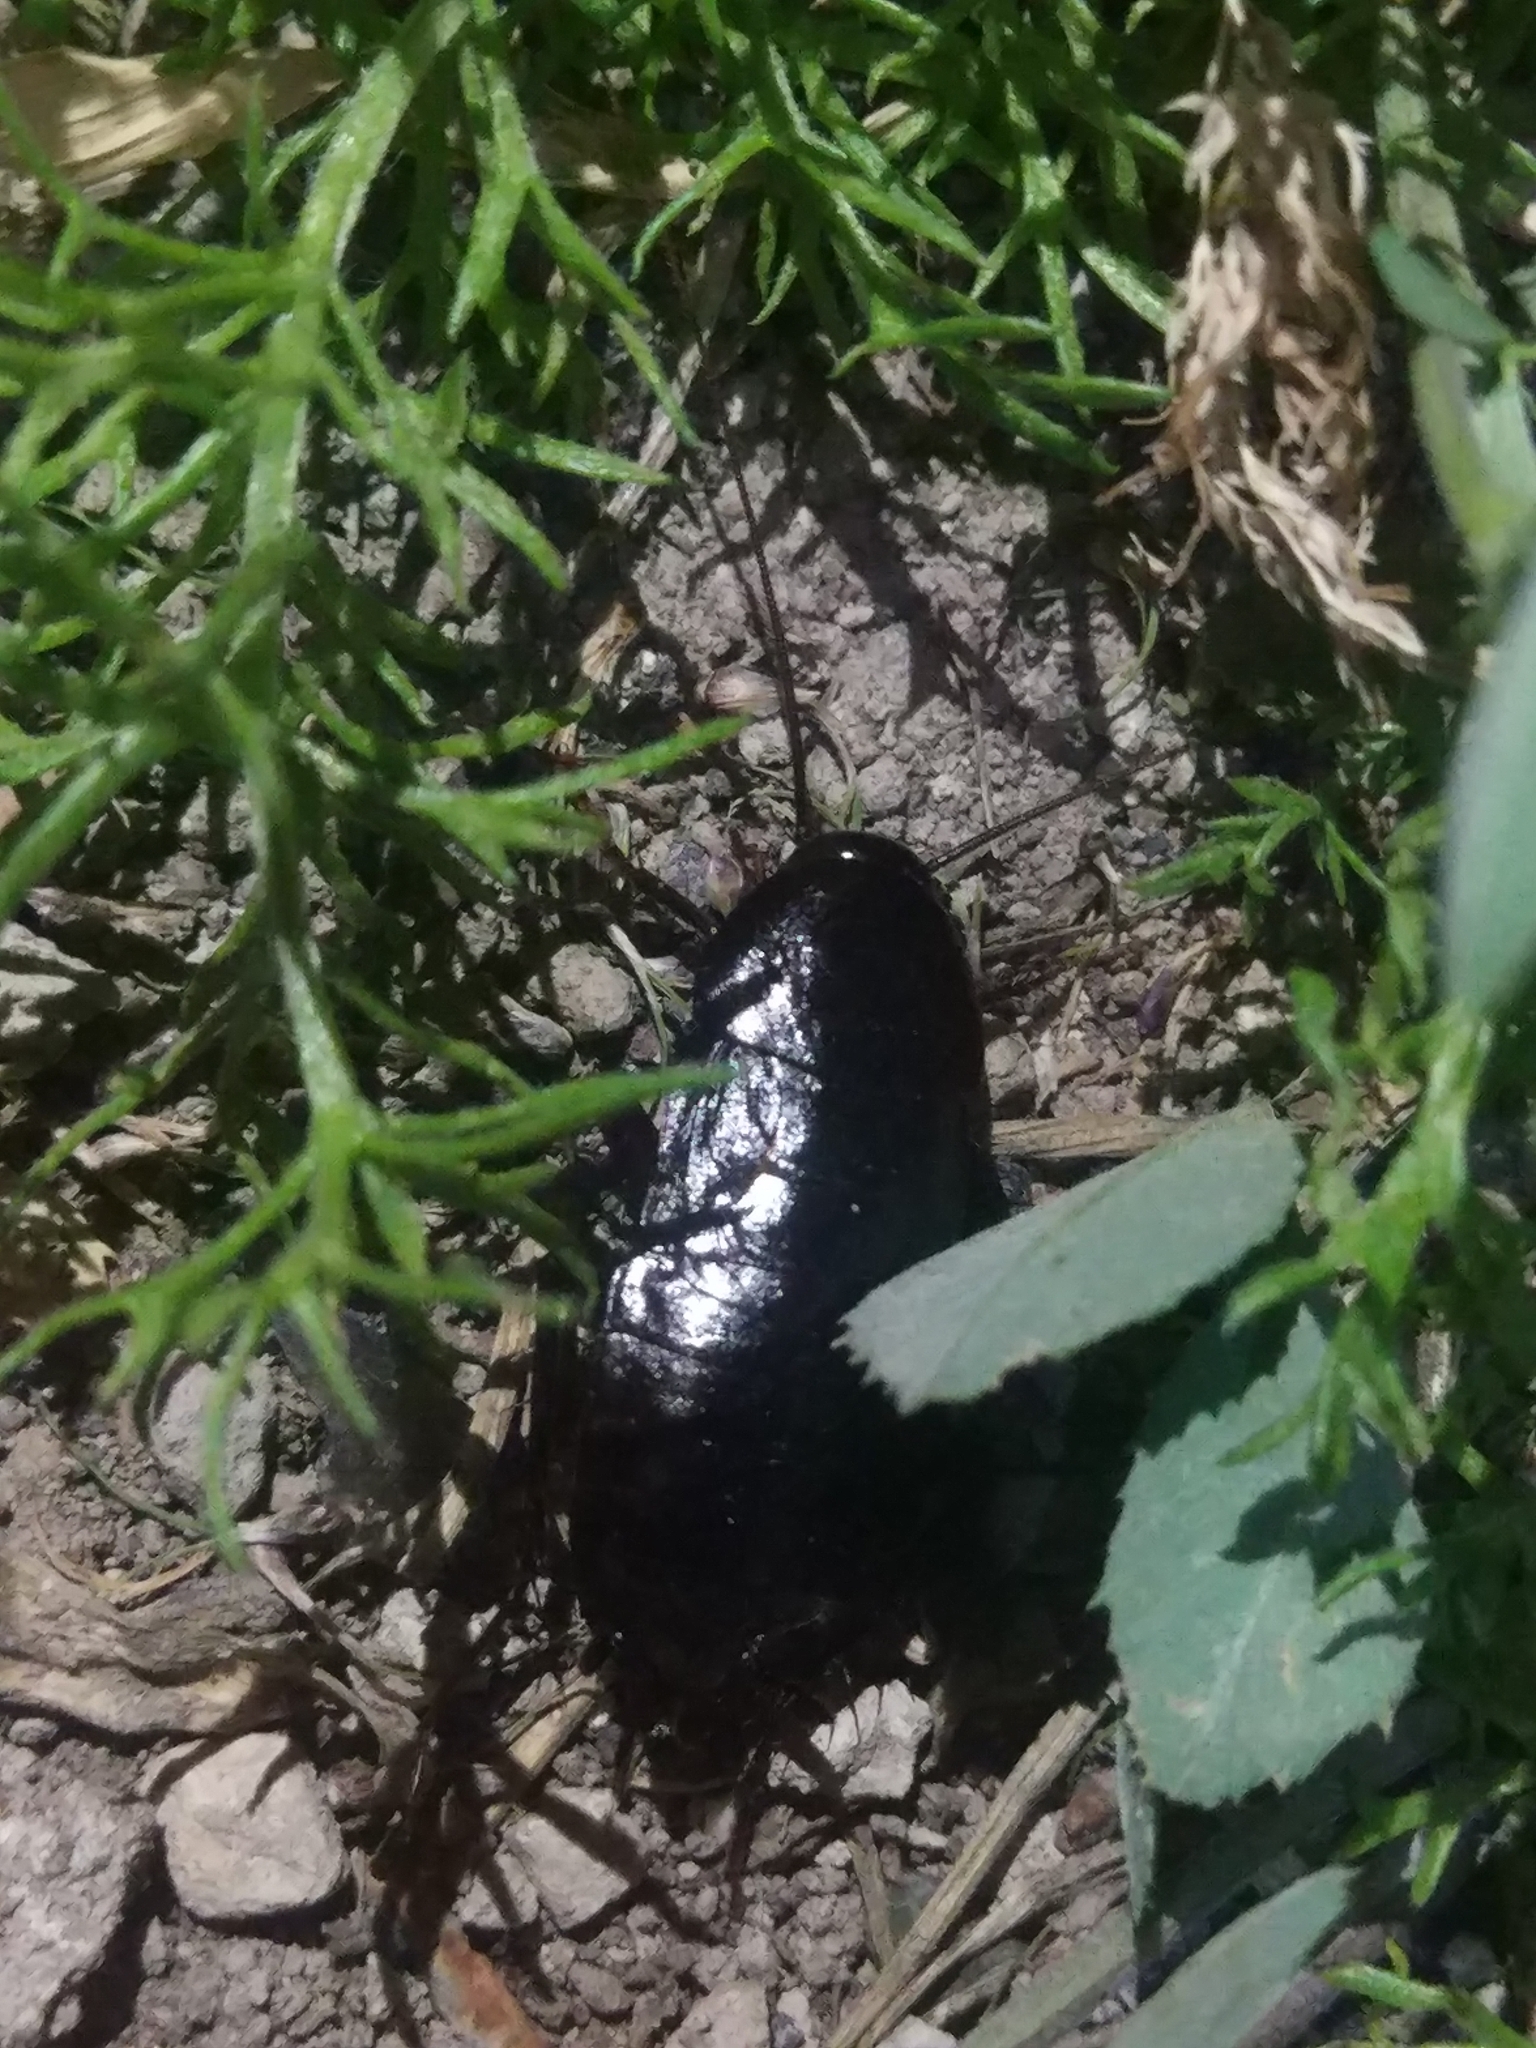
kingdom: Animalia
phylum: Arthropoda
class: Insecta
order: Blattodea
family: Blattidae
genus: Blatta
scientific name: Blatta orientalis
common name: Oriental cockroach
